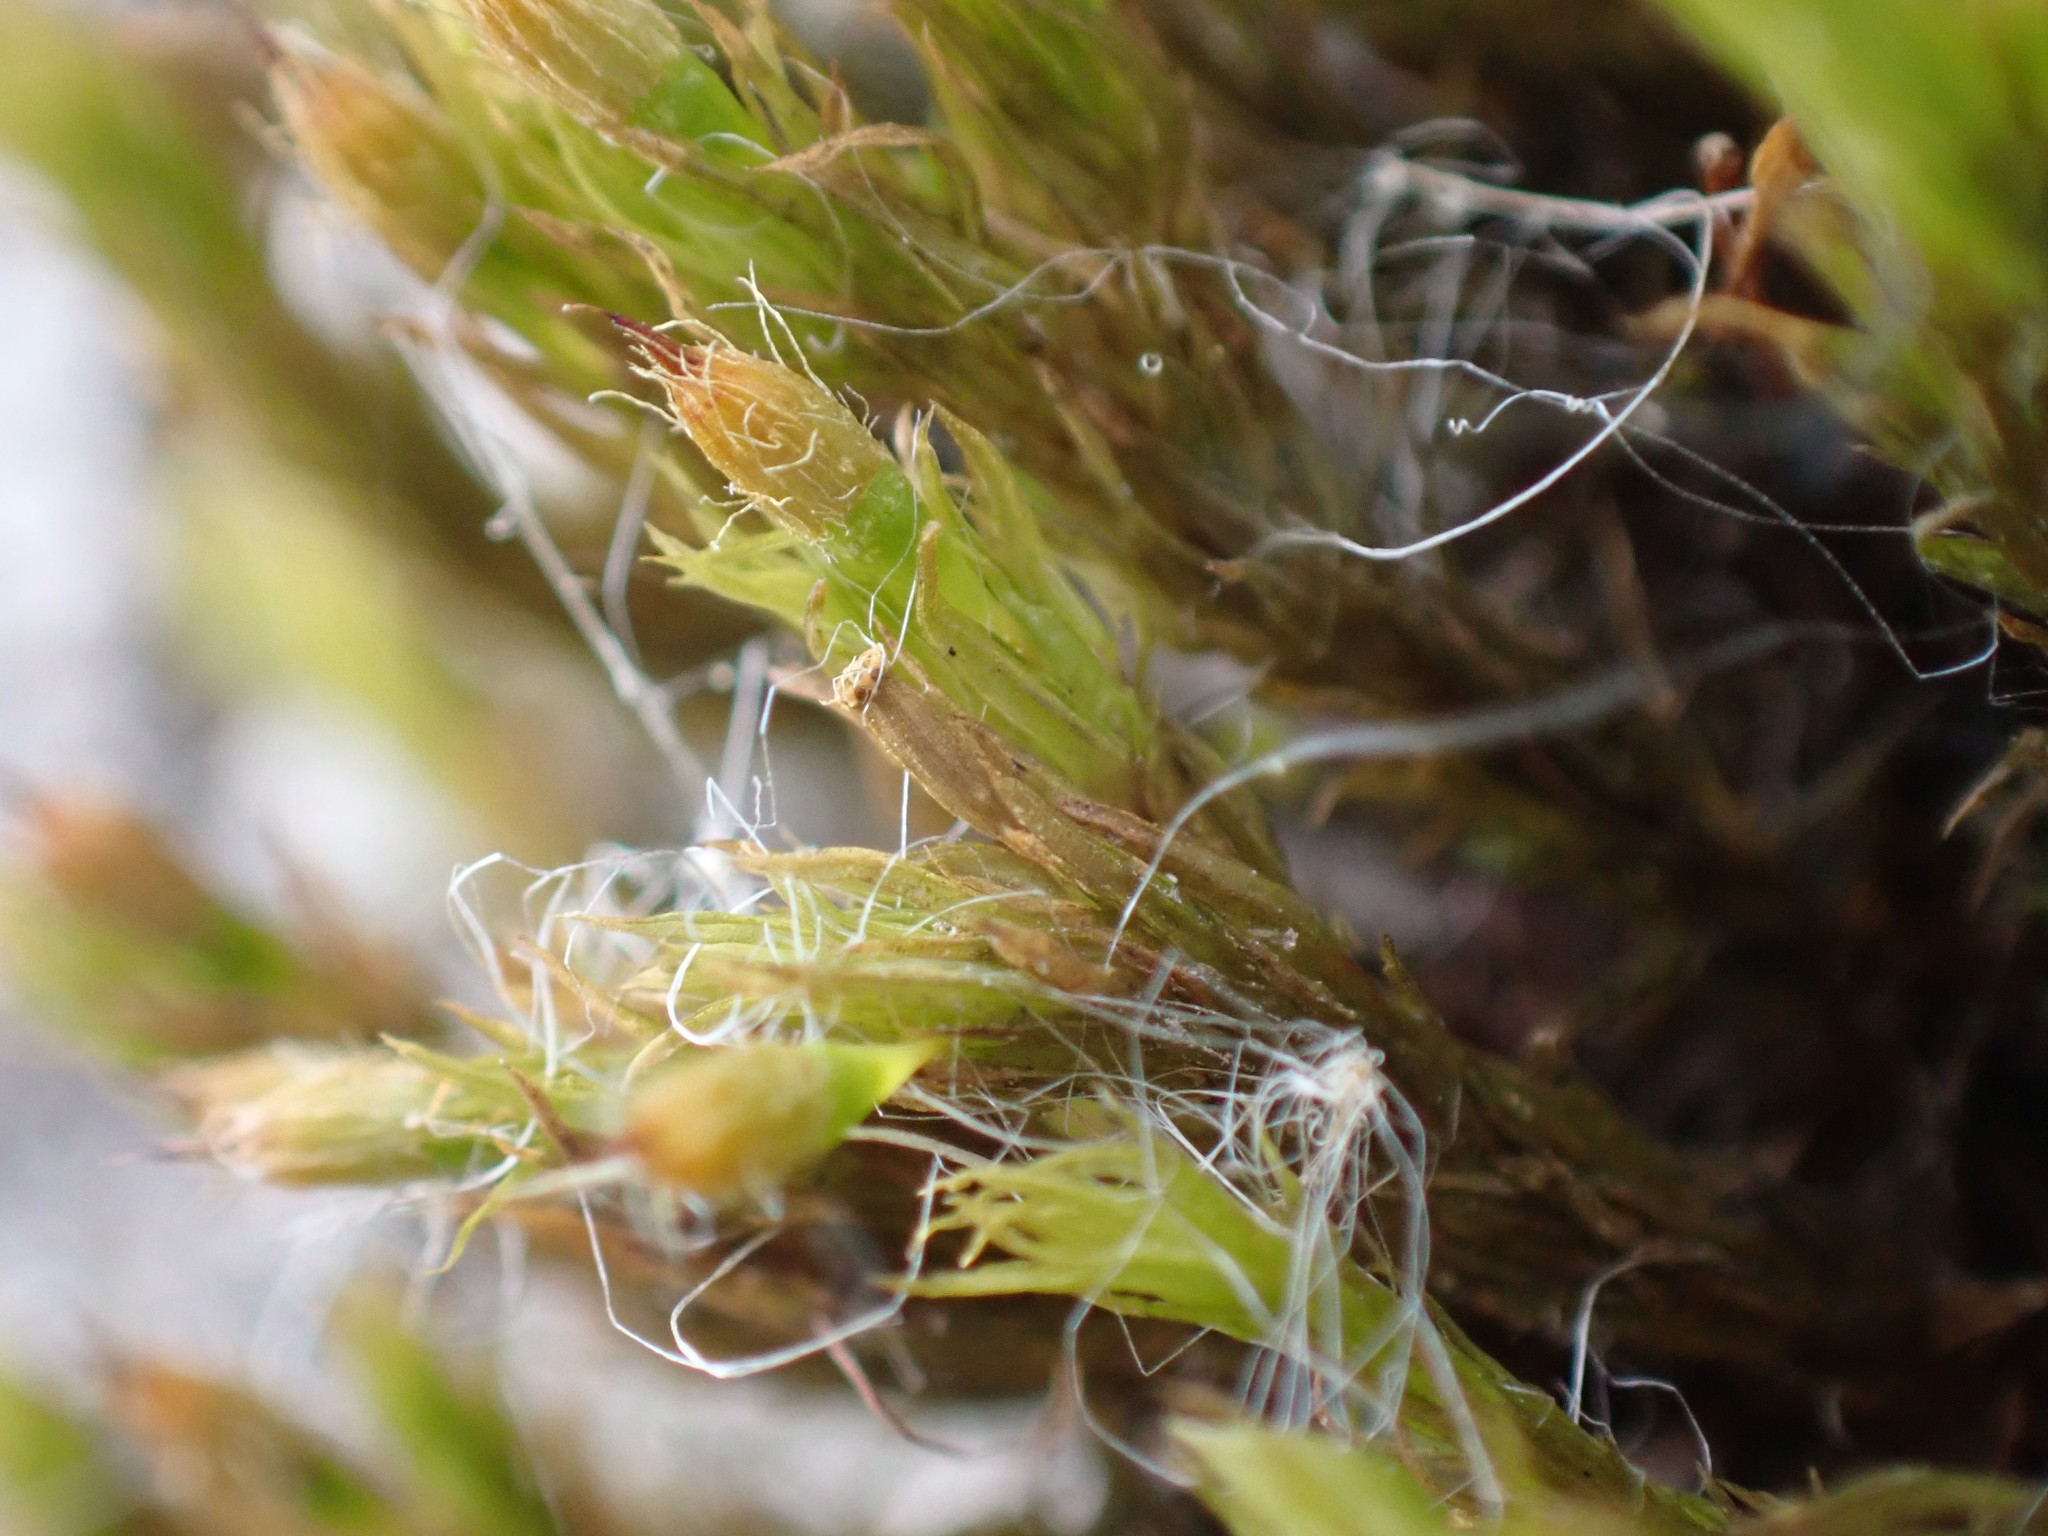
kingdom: Plantae
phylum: Bryophyta
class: Bryopsida
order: Orthotrichales
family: Orthotrichaceae
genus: Pulvigera
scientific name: Pulvigera papillosa
